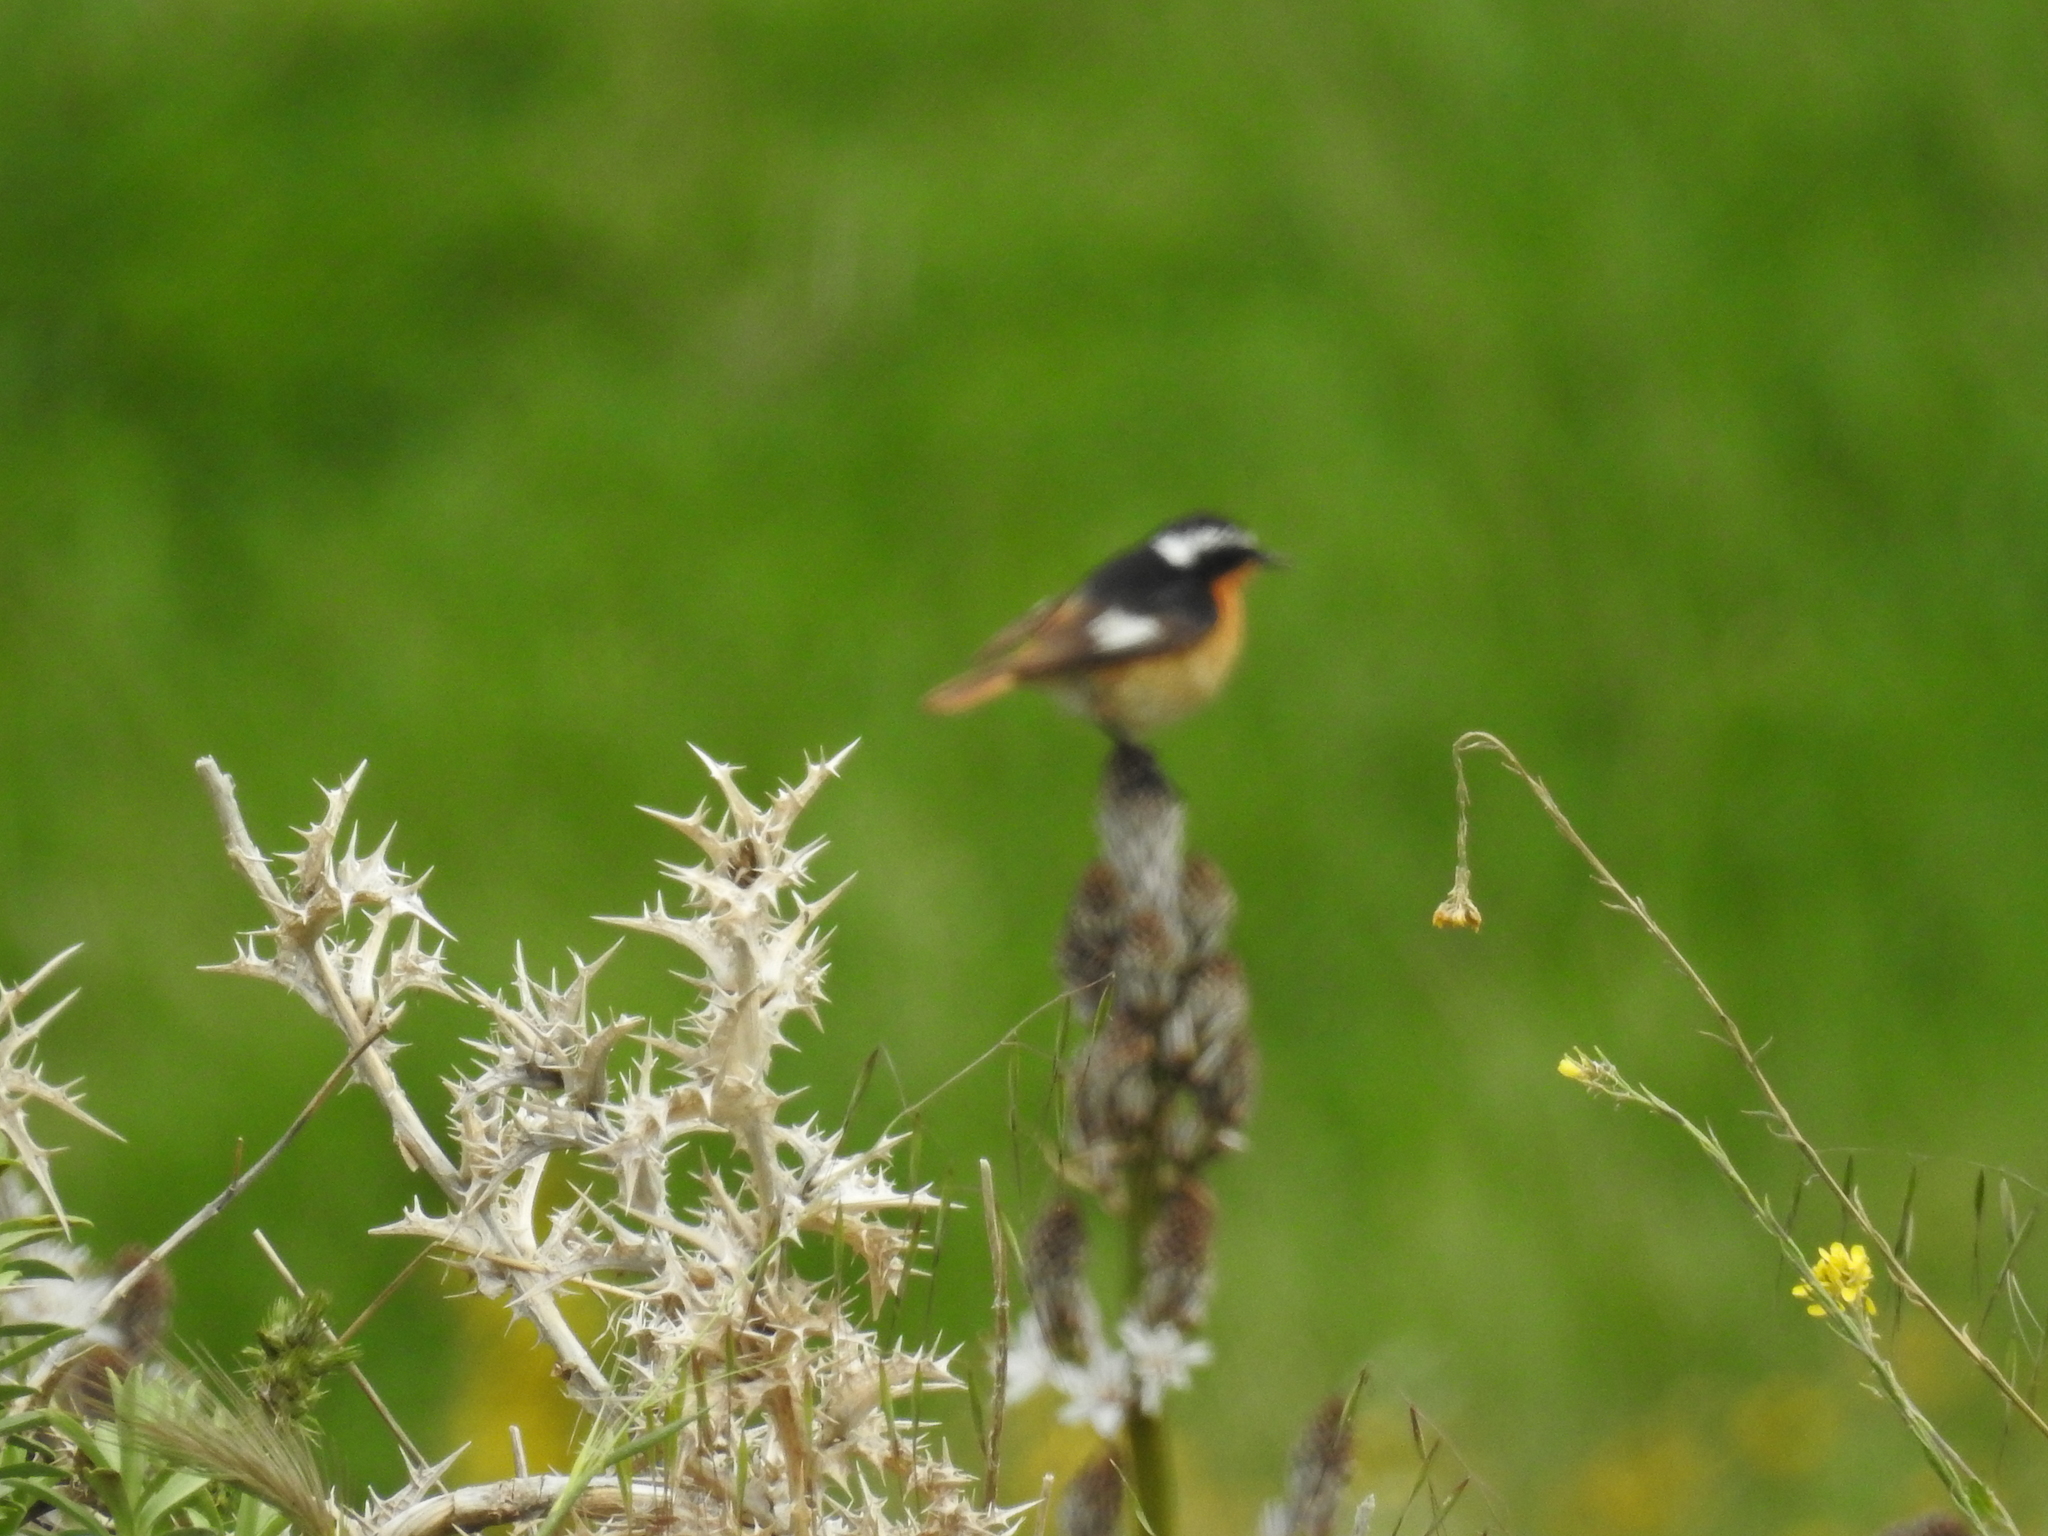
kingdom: Animalia
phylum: Chordata
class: Aves
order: Passeriformes
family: Muscicapidae
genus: Phoenicurus
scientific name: Phoenicurus moussieri
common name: Moussier's redstart
